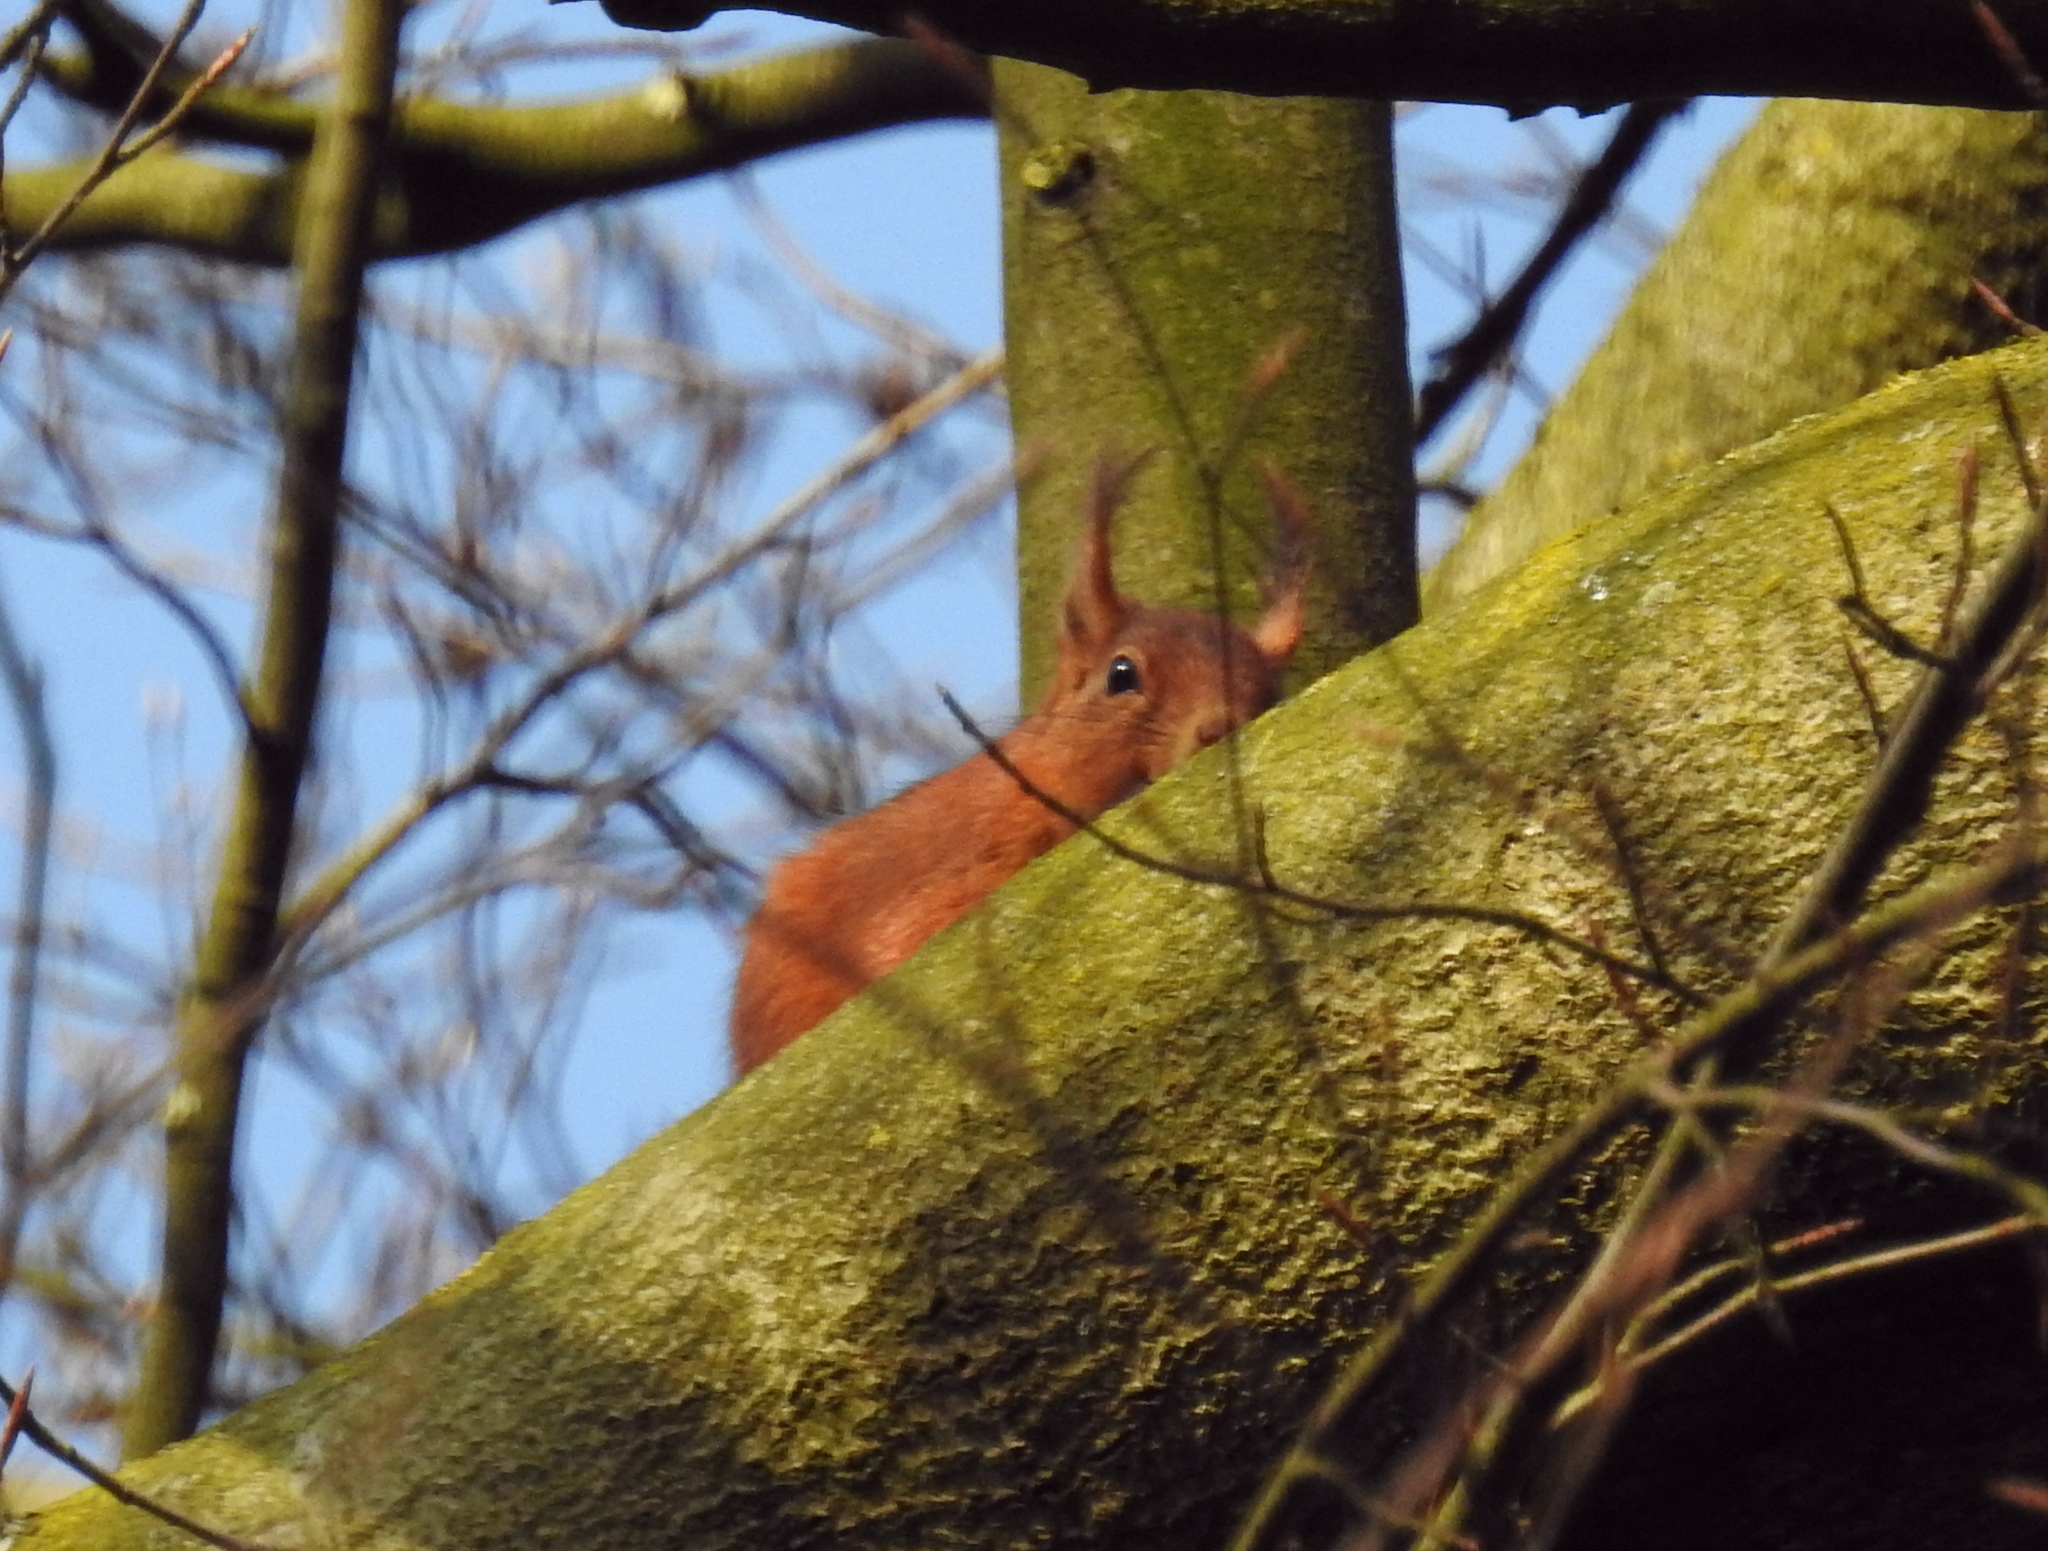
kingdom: Animalia
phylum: Chordata
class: Mammalia
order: Rodentia
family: Sciuridae
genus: Sciurus
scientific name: Sciurus vulgaris
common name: Eurasian red squirrel
